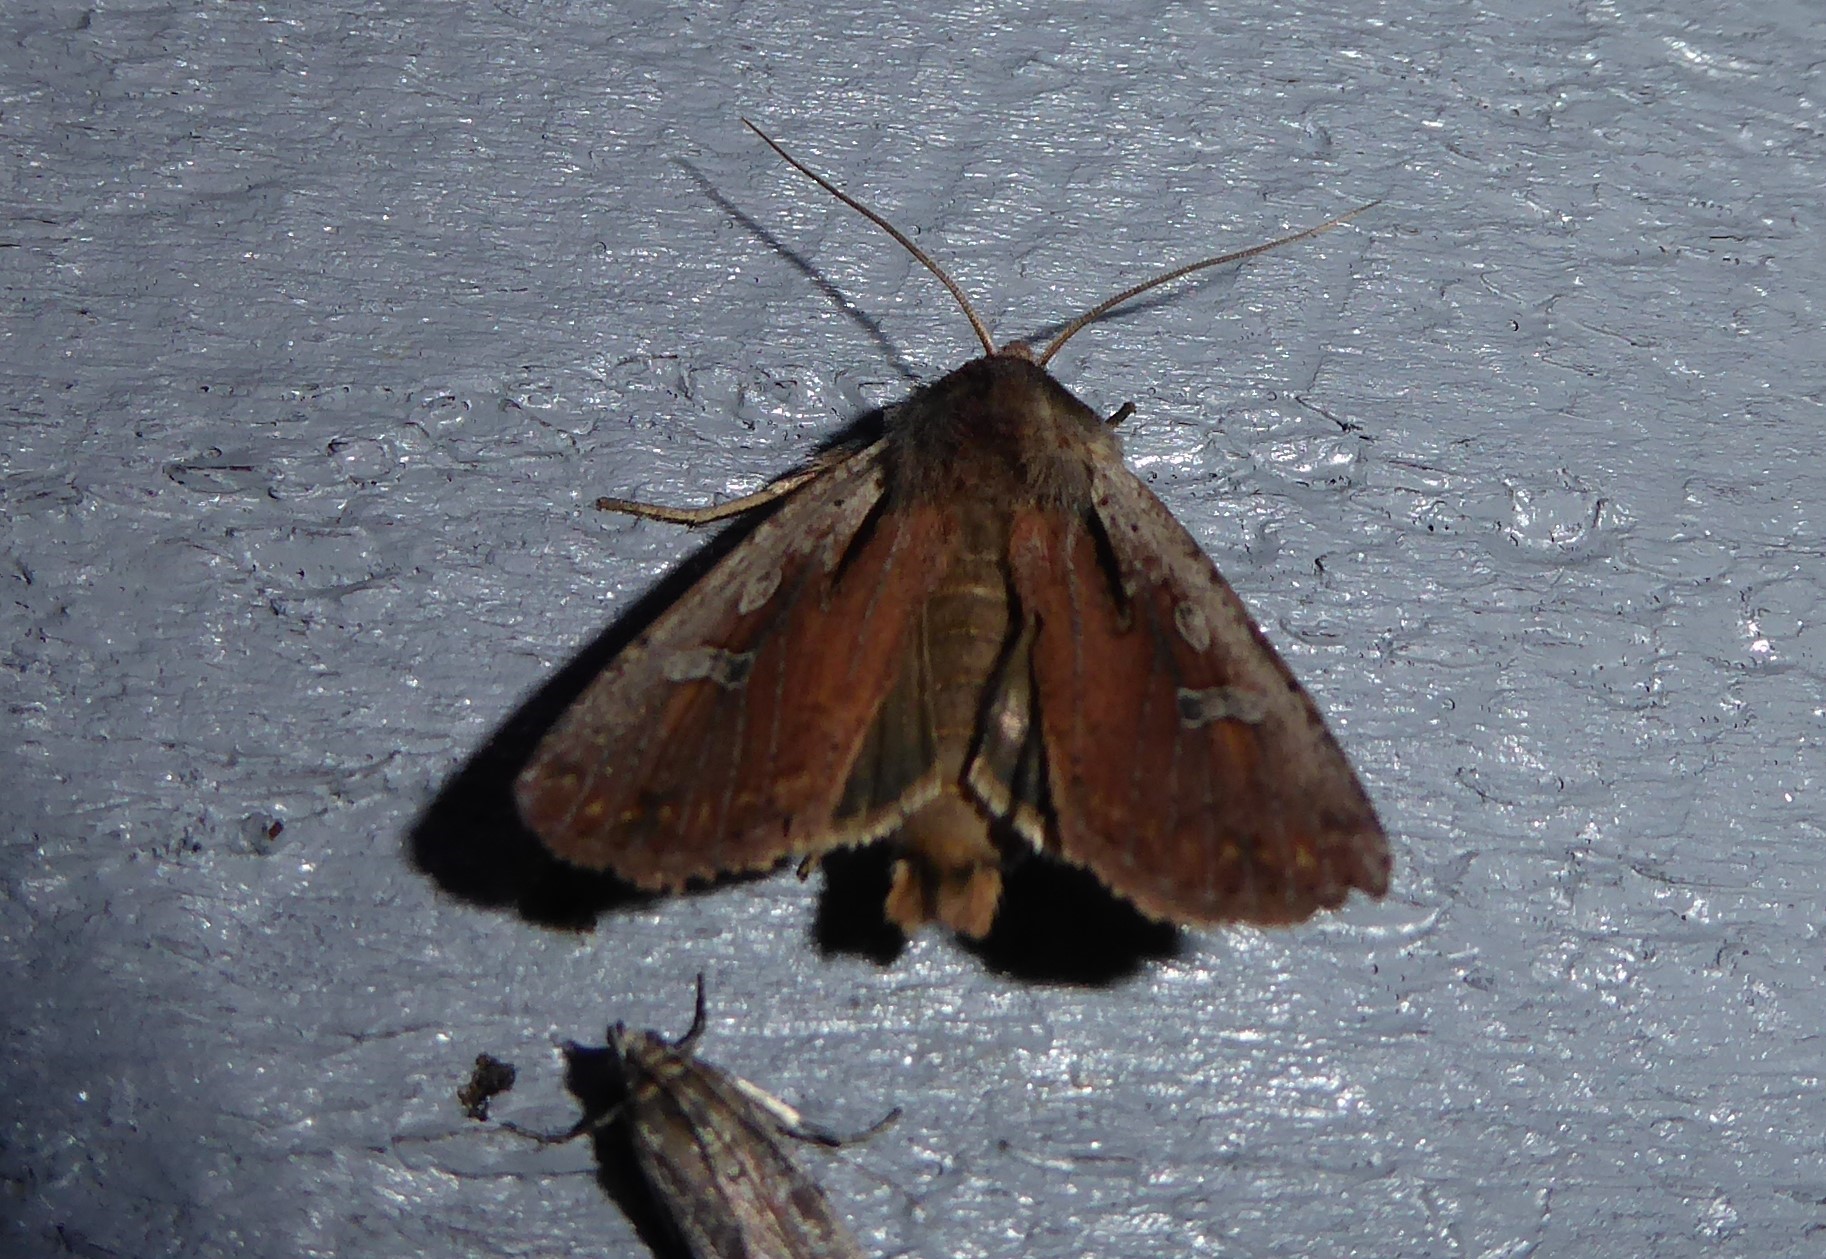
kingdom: Animalia
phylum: Arthropoda
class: Insecta
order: Lepidoptera
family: Noctuidae
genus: Ichneutica
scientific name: Ichneutica atristriga
